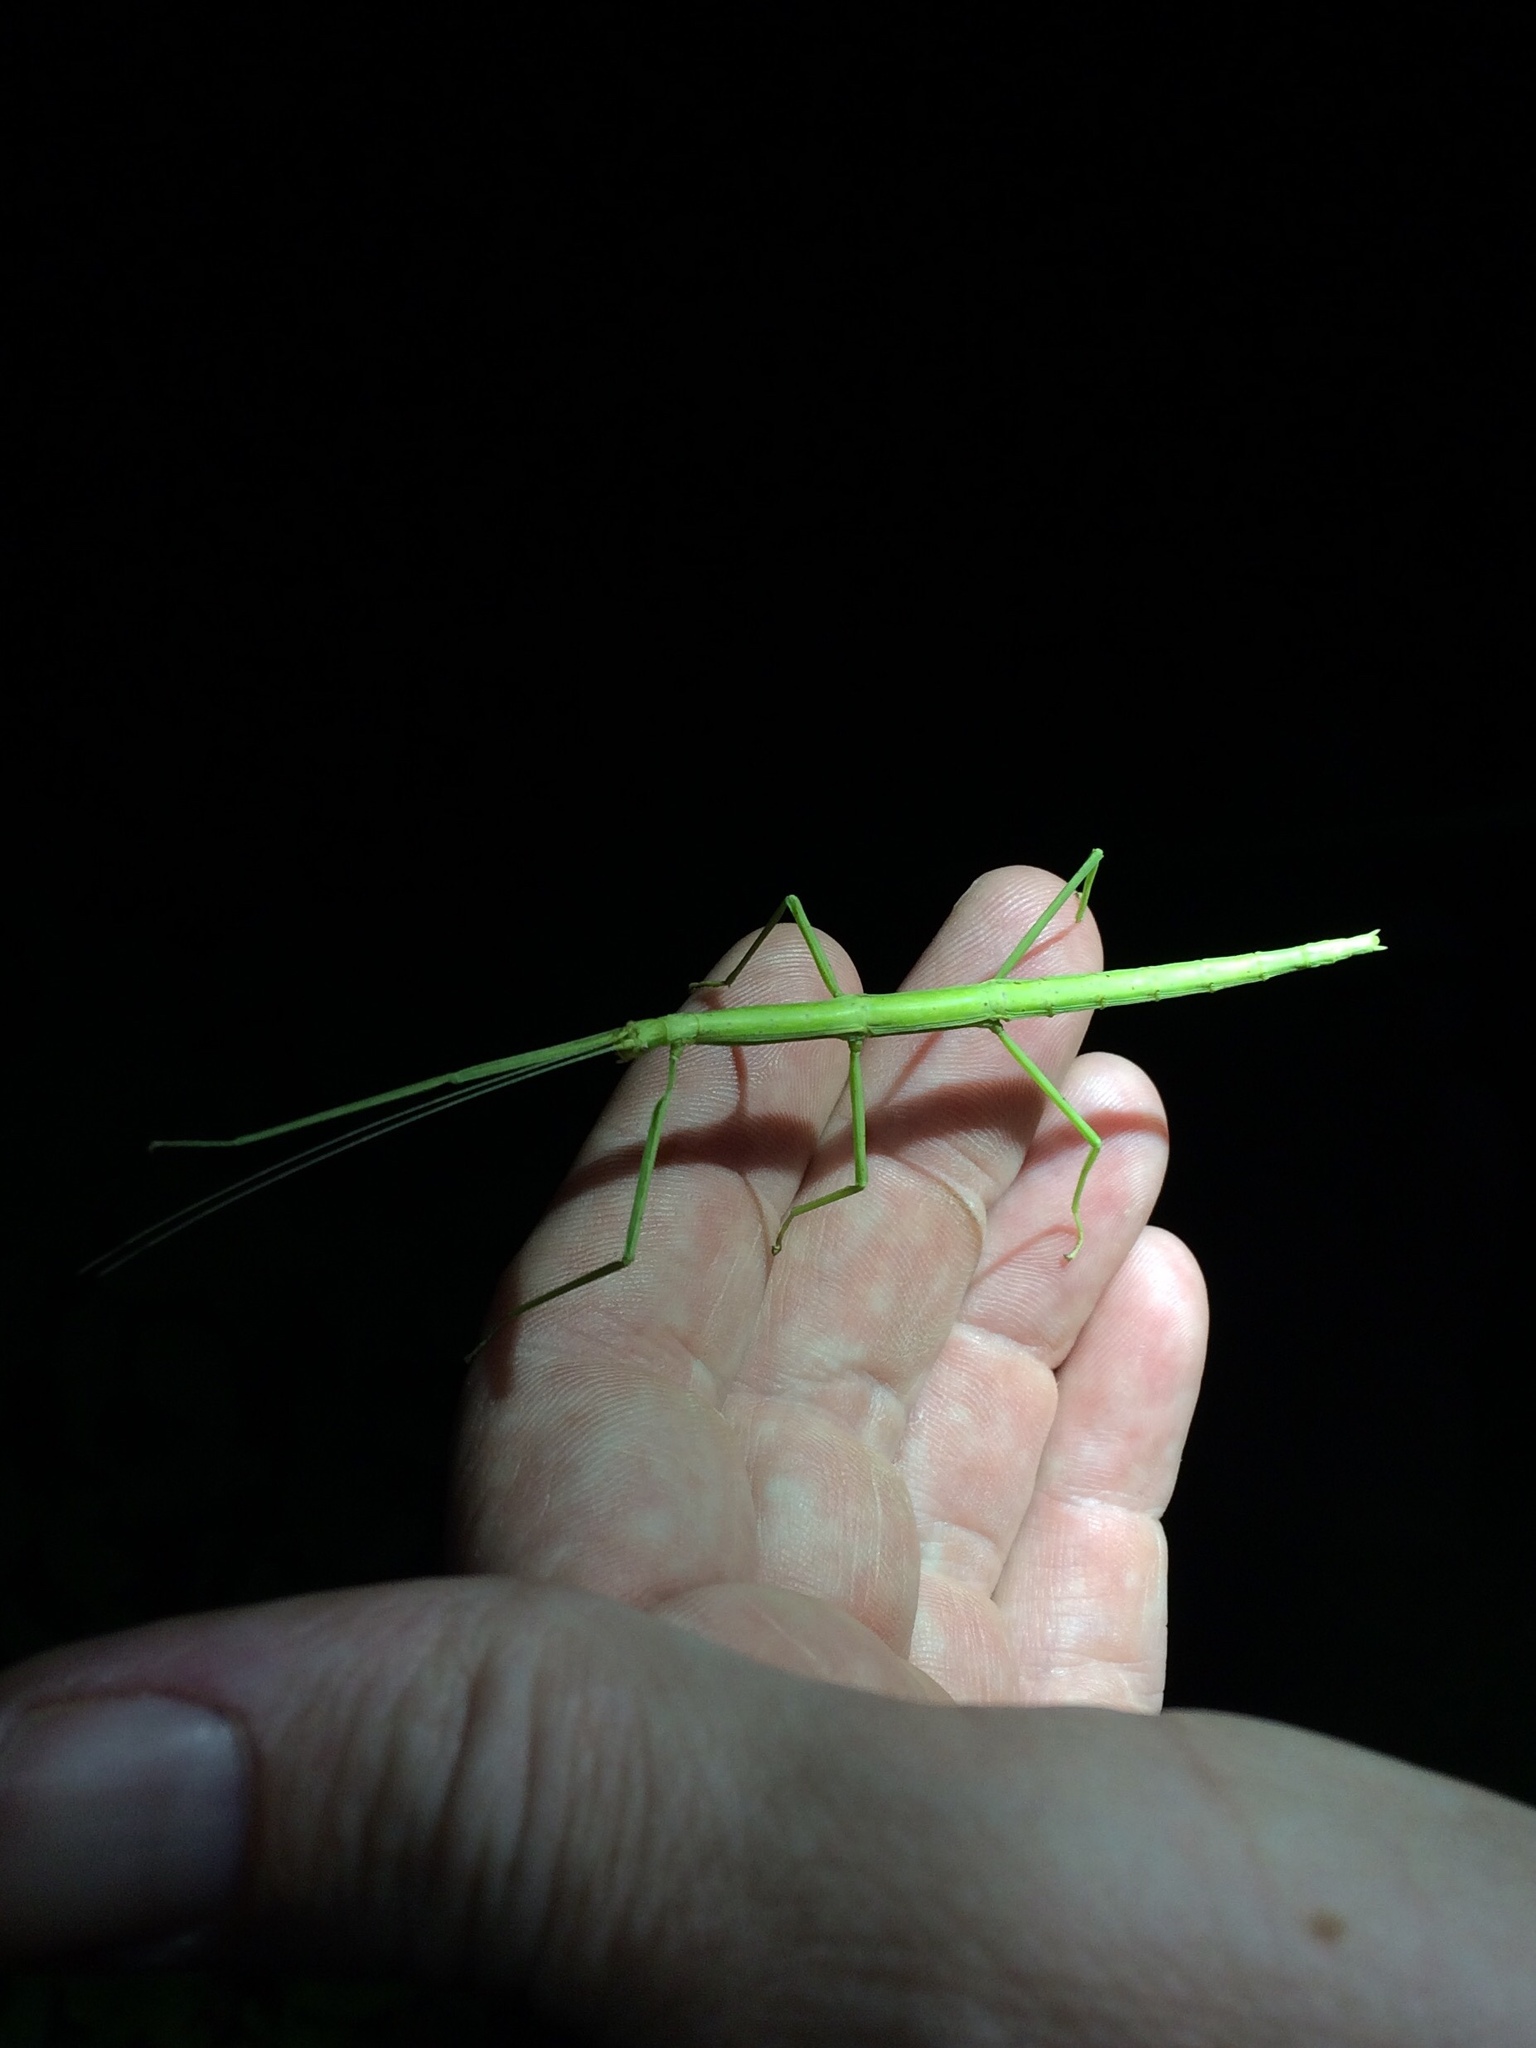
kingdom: Animalia
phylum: Arthropoda
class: Insecta
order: Phasmida
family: Diapheromeridae
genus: Diapheromera
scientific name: Diapheromera femorata
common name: Common american walkingstick
